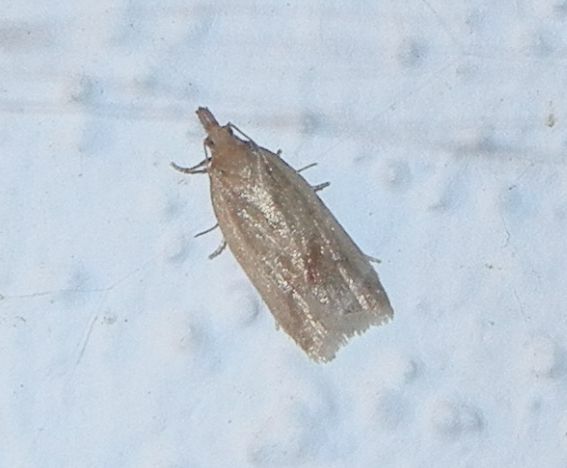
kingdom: Animalia
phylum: Arthropoda
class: Insecta
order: Lepidoptera
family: Tortricidae
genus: Clepsis
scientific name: Clepsis coriacana
